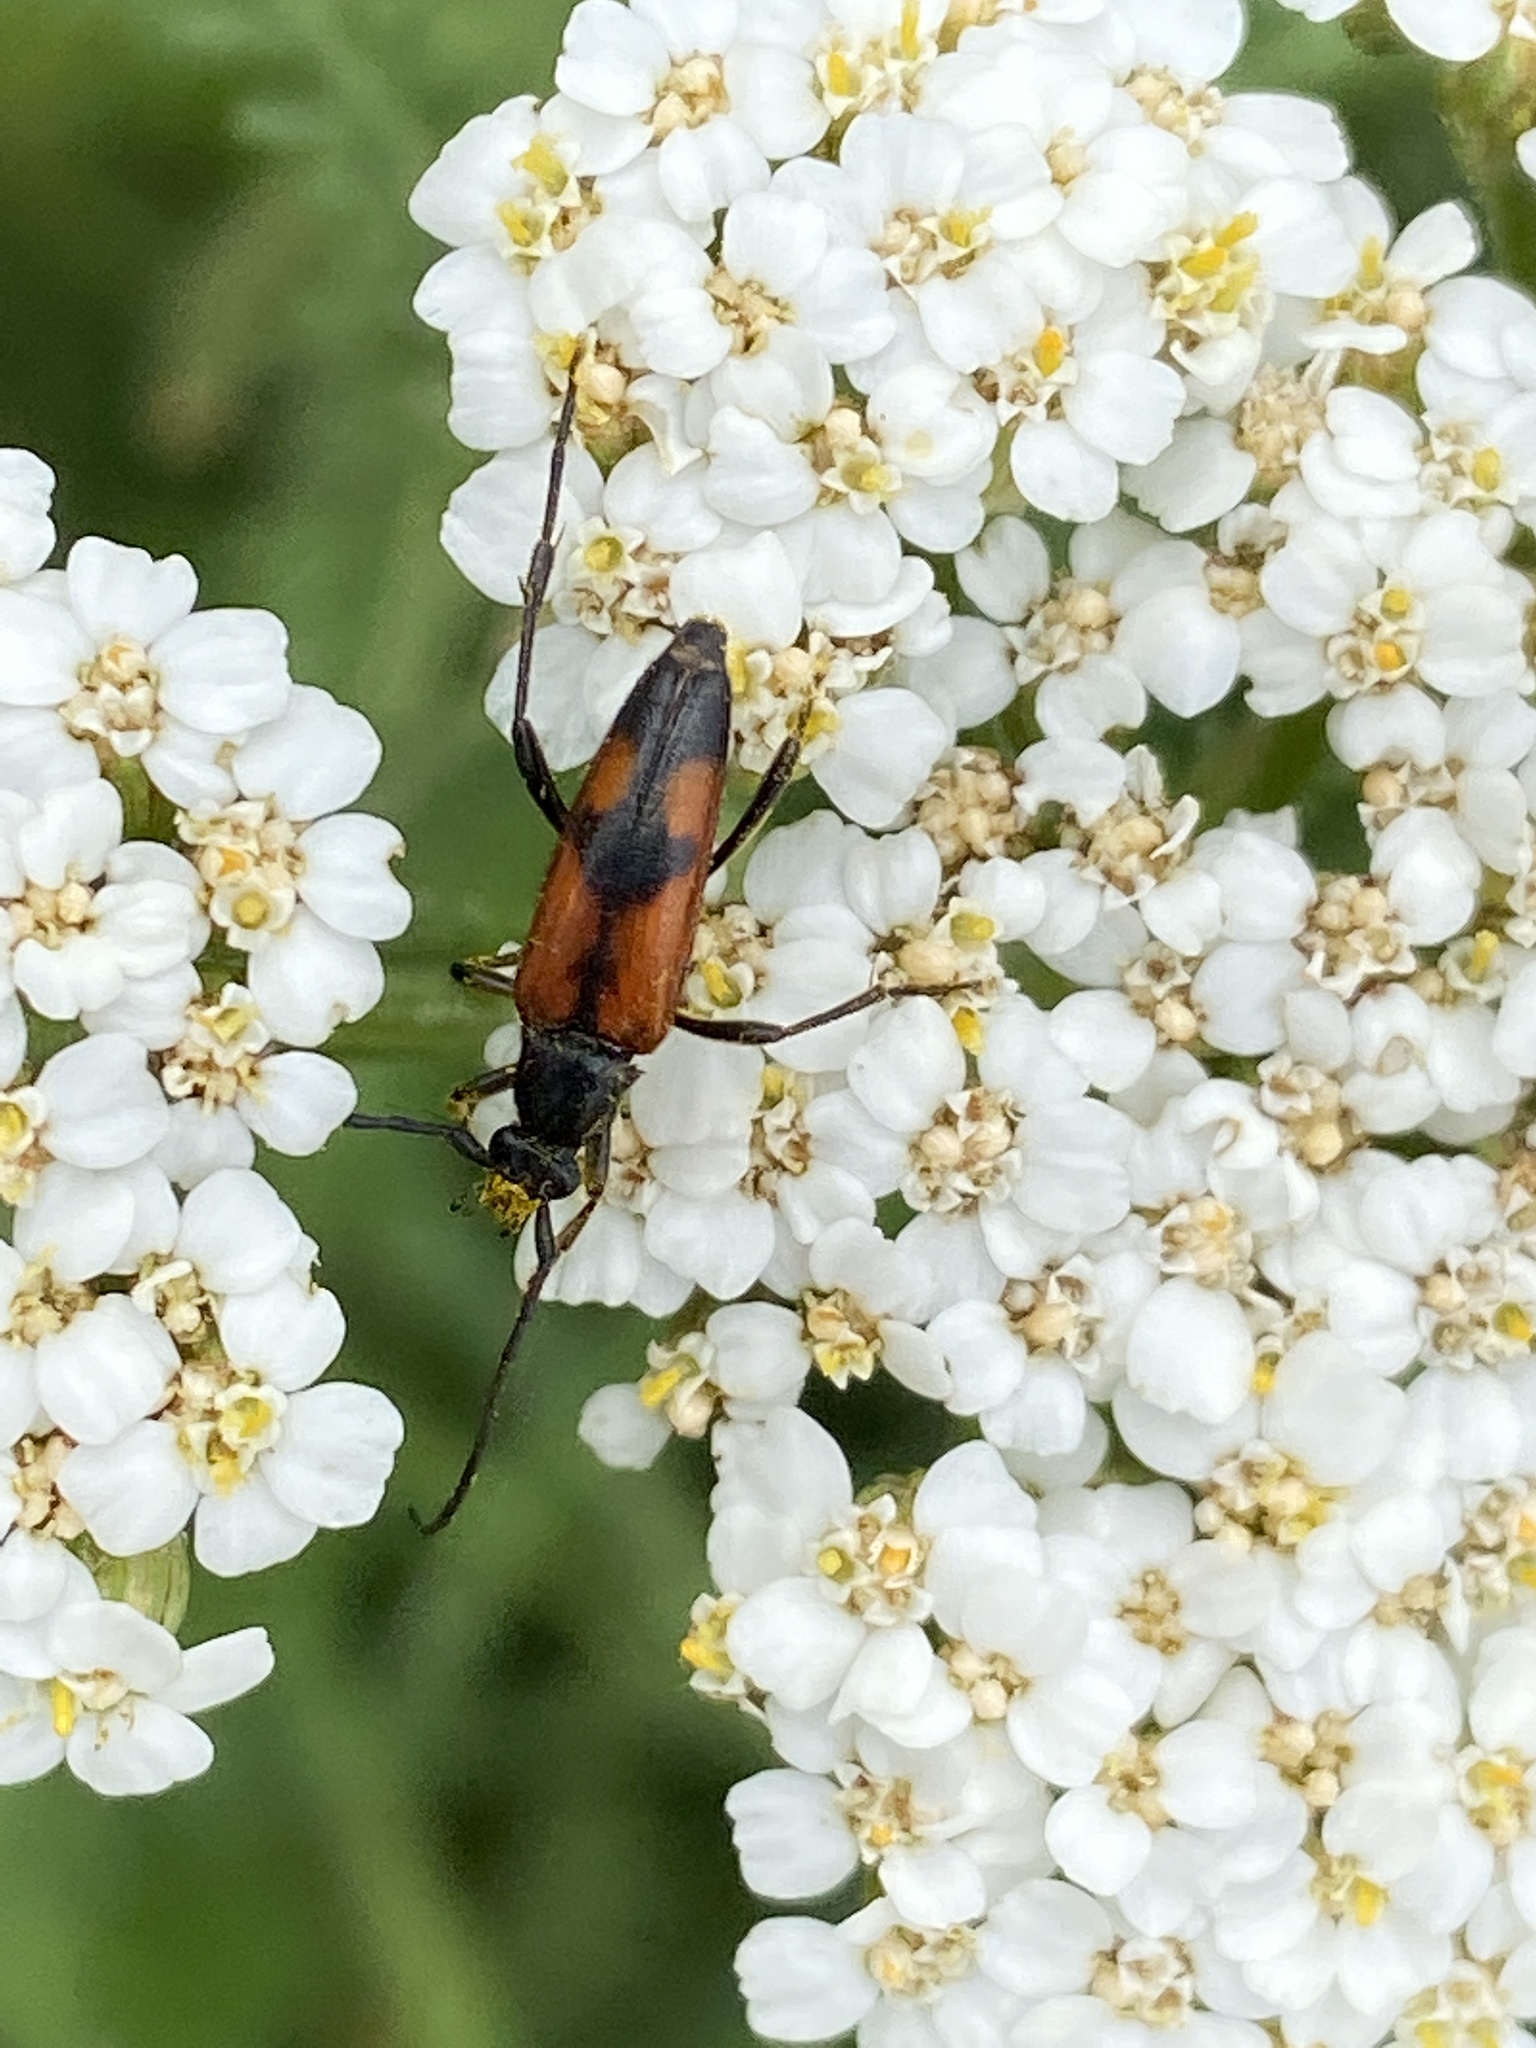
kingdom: Animalia
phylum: Arthropoda
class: Insecta
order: Coleoptera
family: Cerambycidae
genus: Stenurella
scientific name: Stenurella bifasciata
